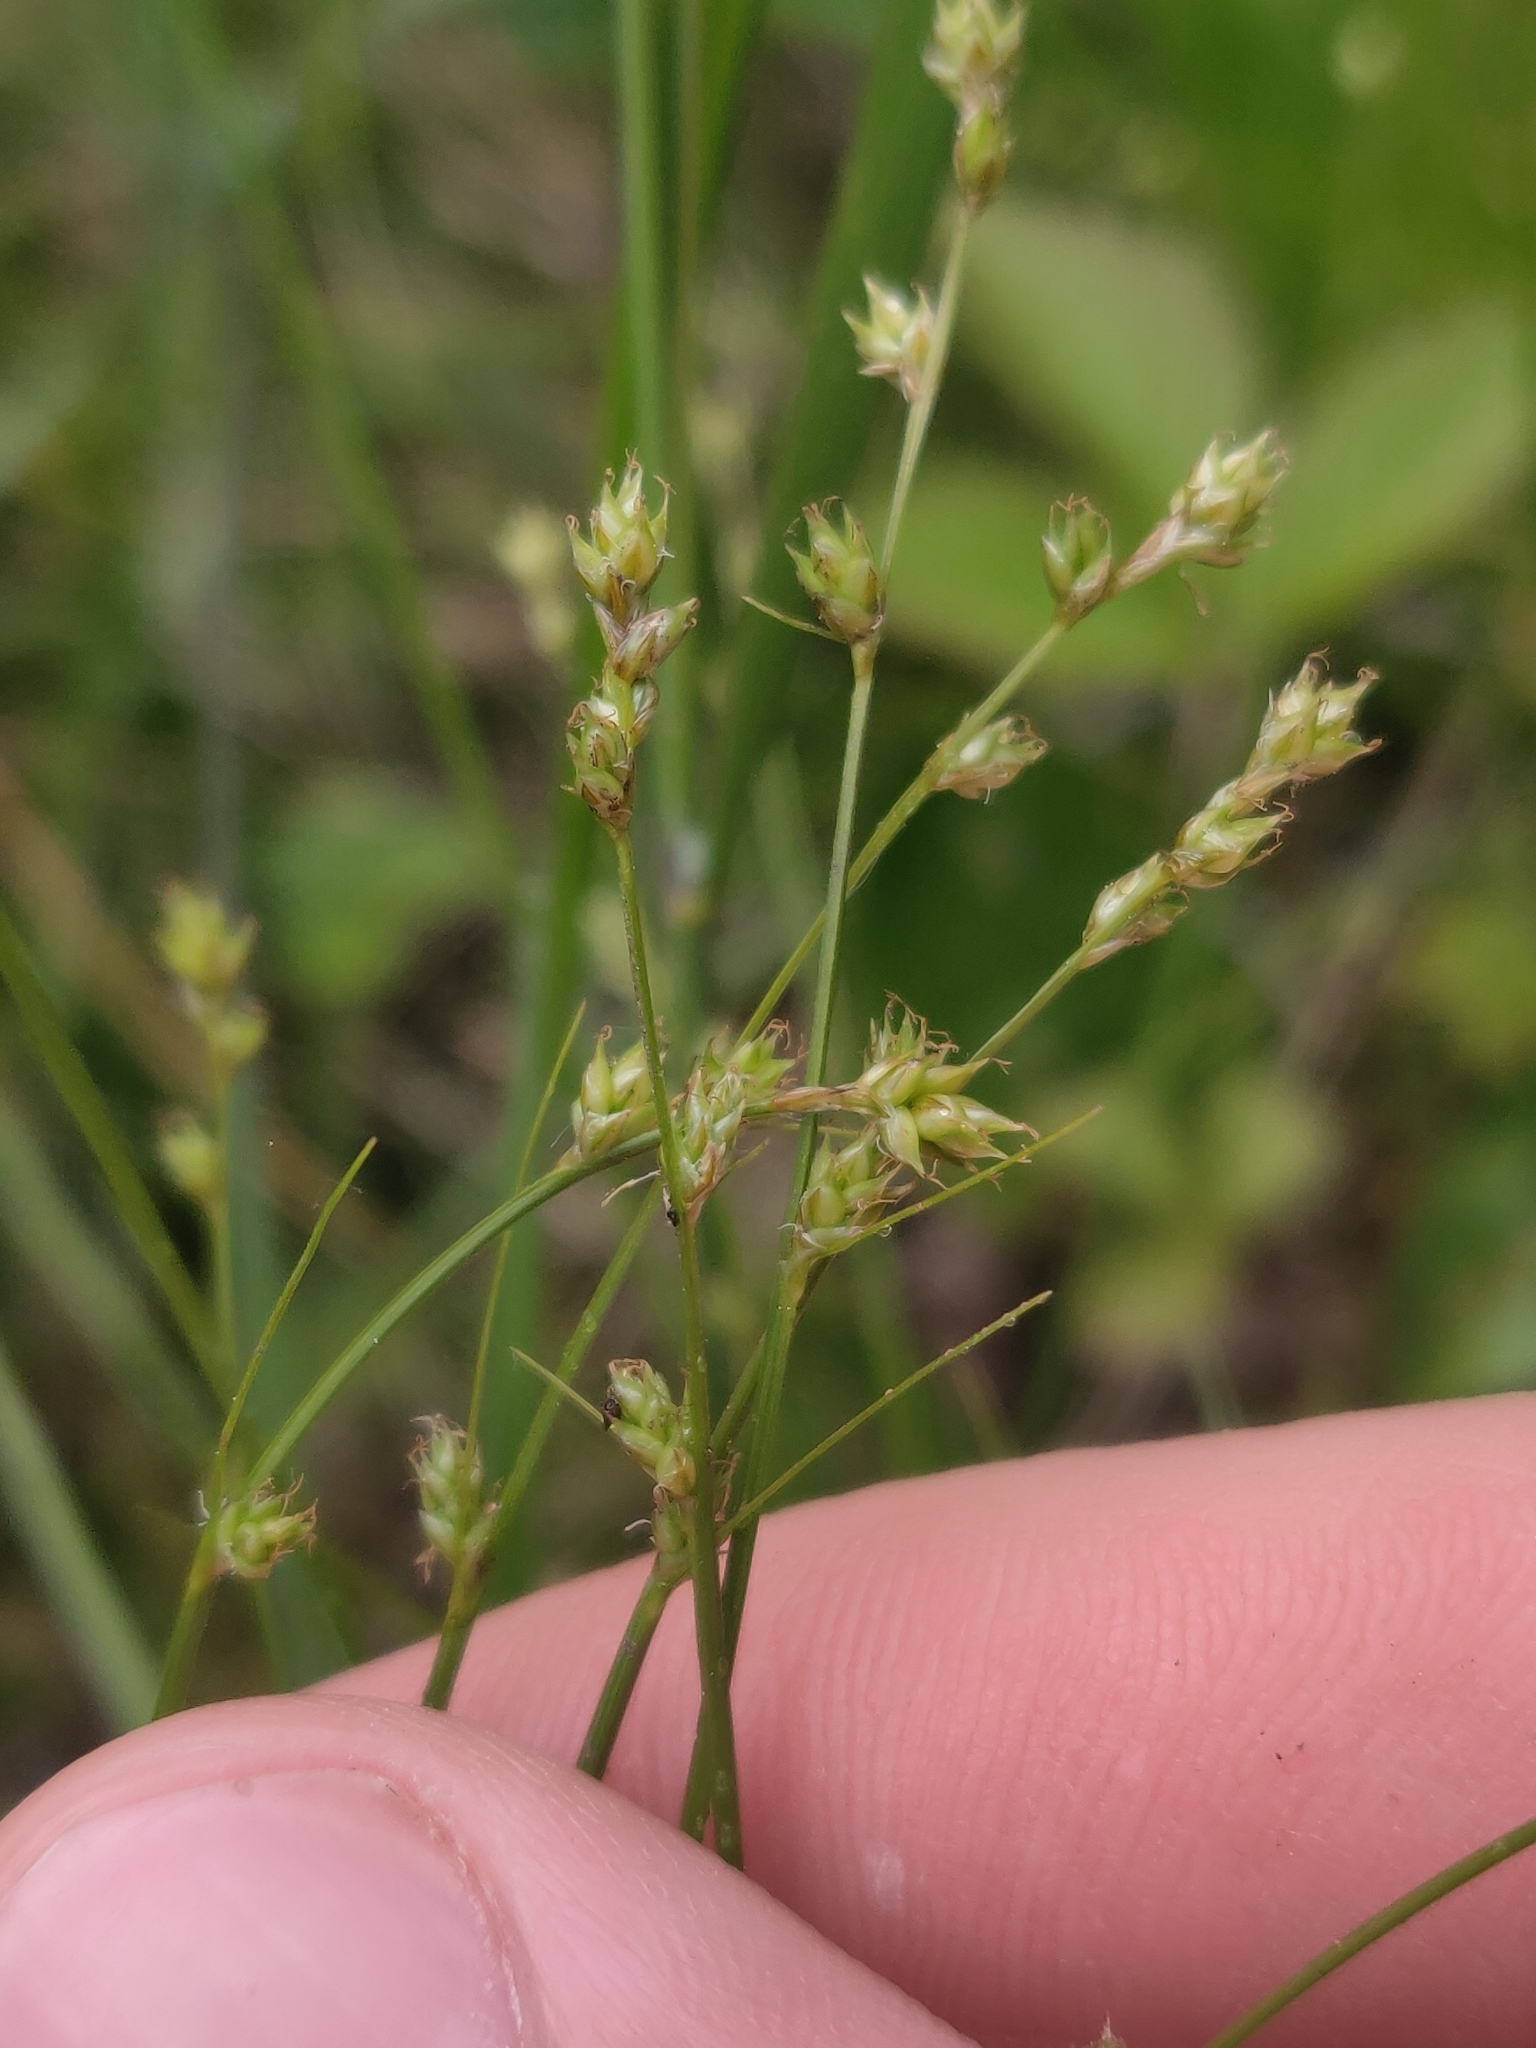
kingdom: Plantae
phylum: Tracheophyta
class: Liliopsida
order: Poales
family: Cyperaceae
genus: Carex
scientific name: Carex brunnescens
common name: Brown sedge
